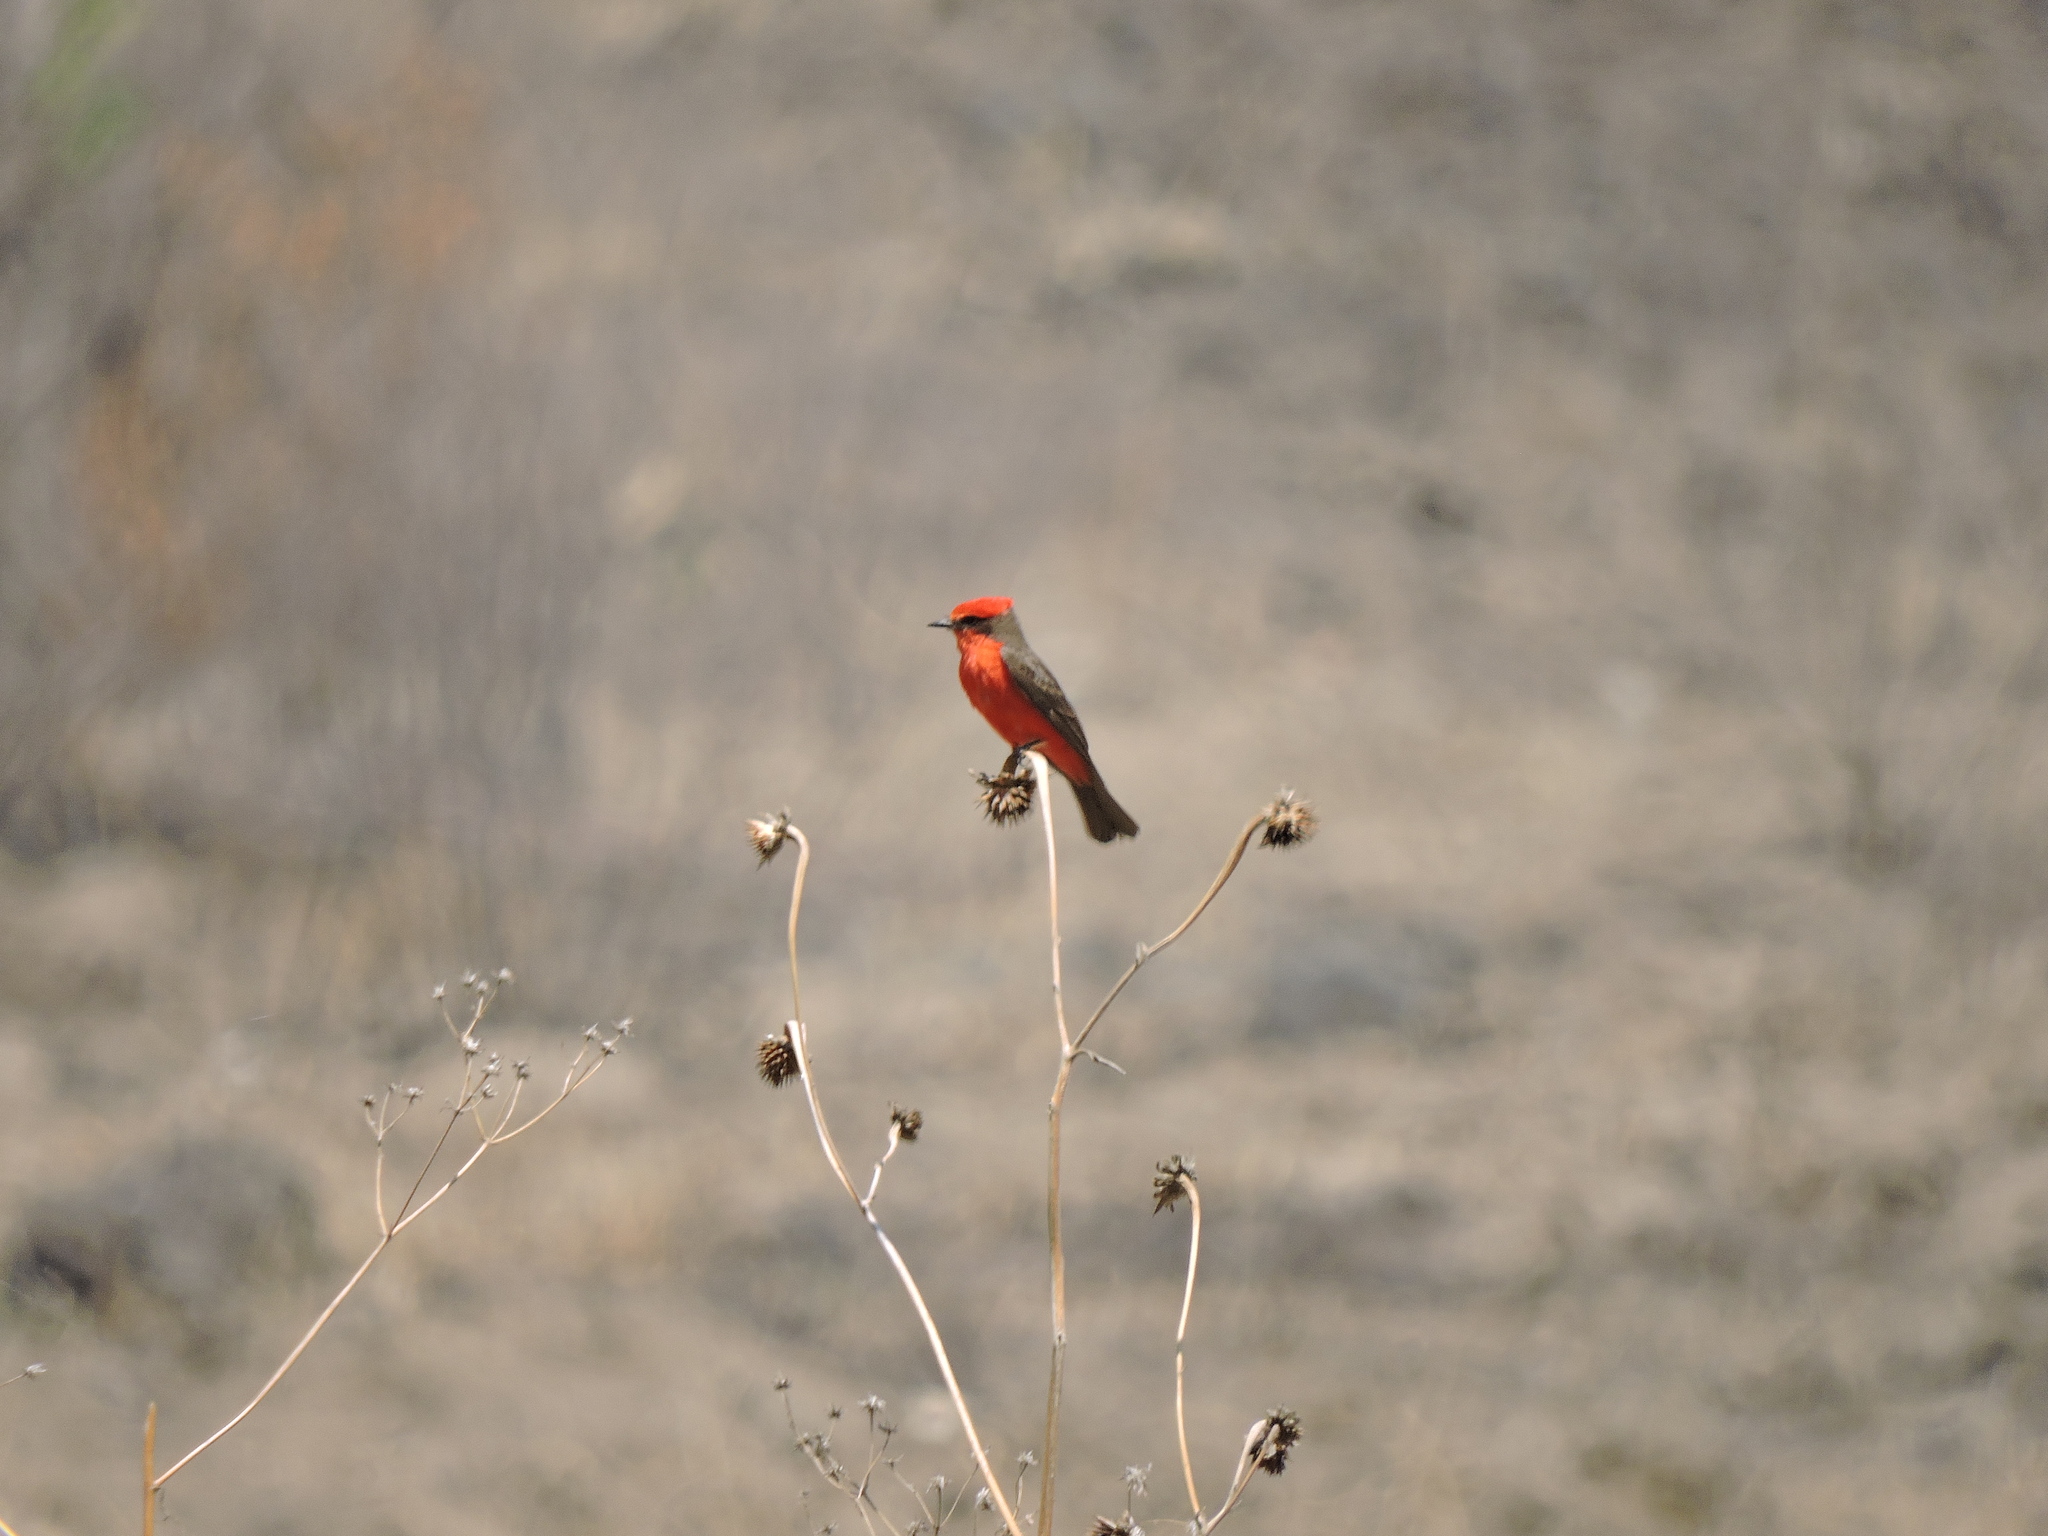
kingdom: Animalia
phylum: Chordata
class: Aves
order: Passeriformes
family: Tyrannidae
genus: Pyrocephalus
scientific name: Pyrocephalus rubinus
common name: Vermilion flycatcher
